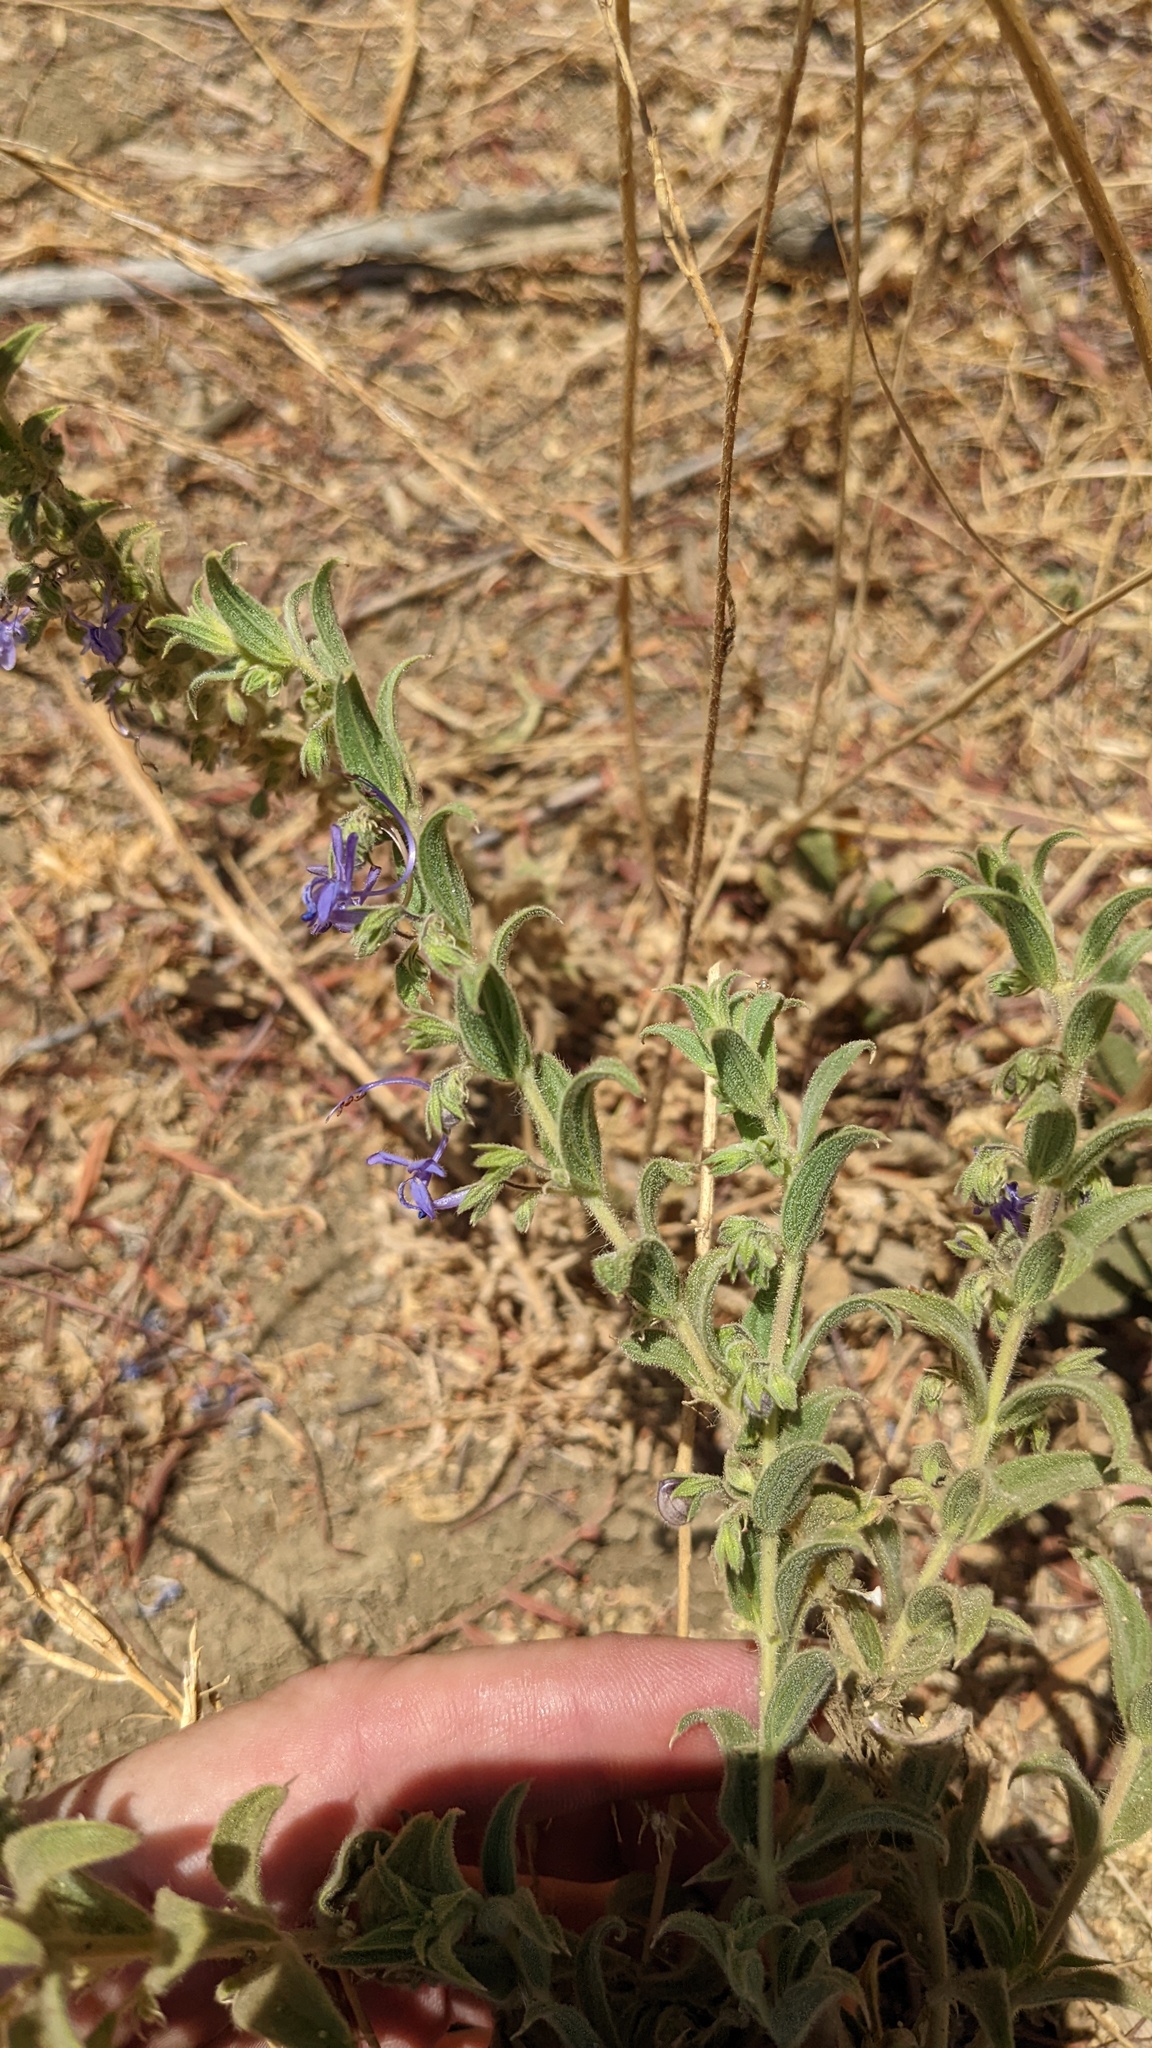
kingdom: Plantae
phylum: Tracheophyta
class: Magnoliopsida
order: Lamiales
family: Lamiaceae
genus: Trichostema
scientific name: Trichostema lanceolatum
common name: Vinegar-weed
